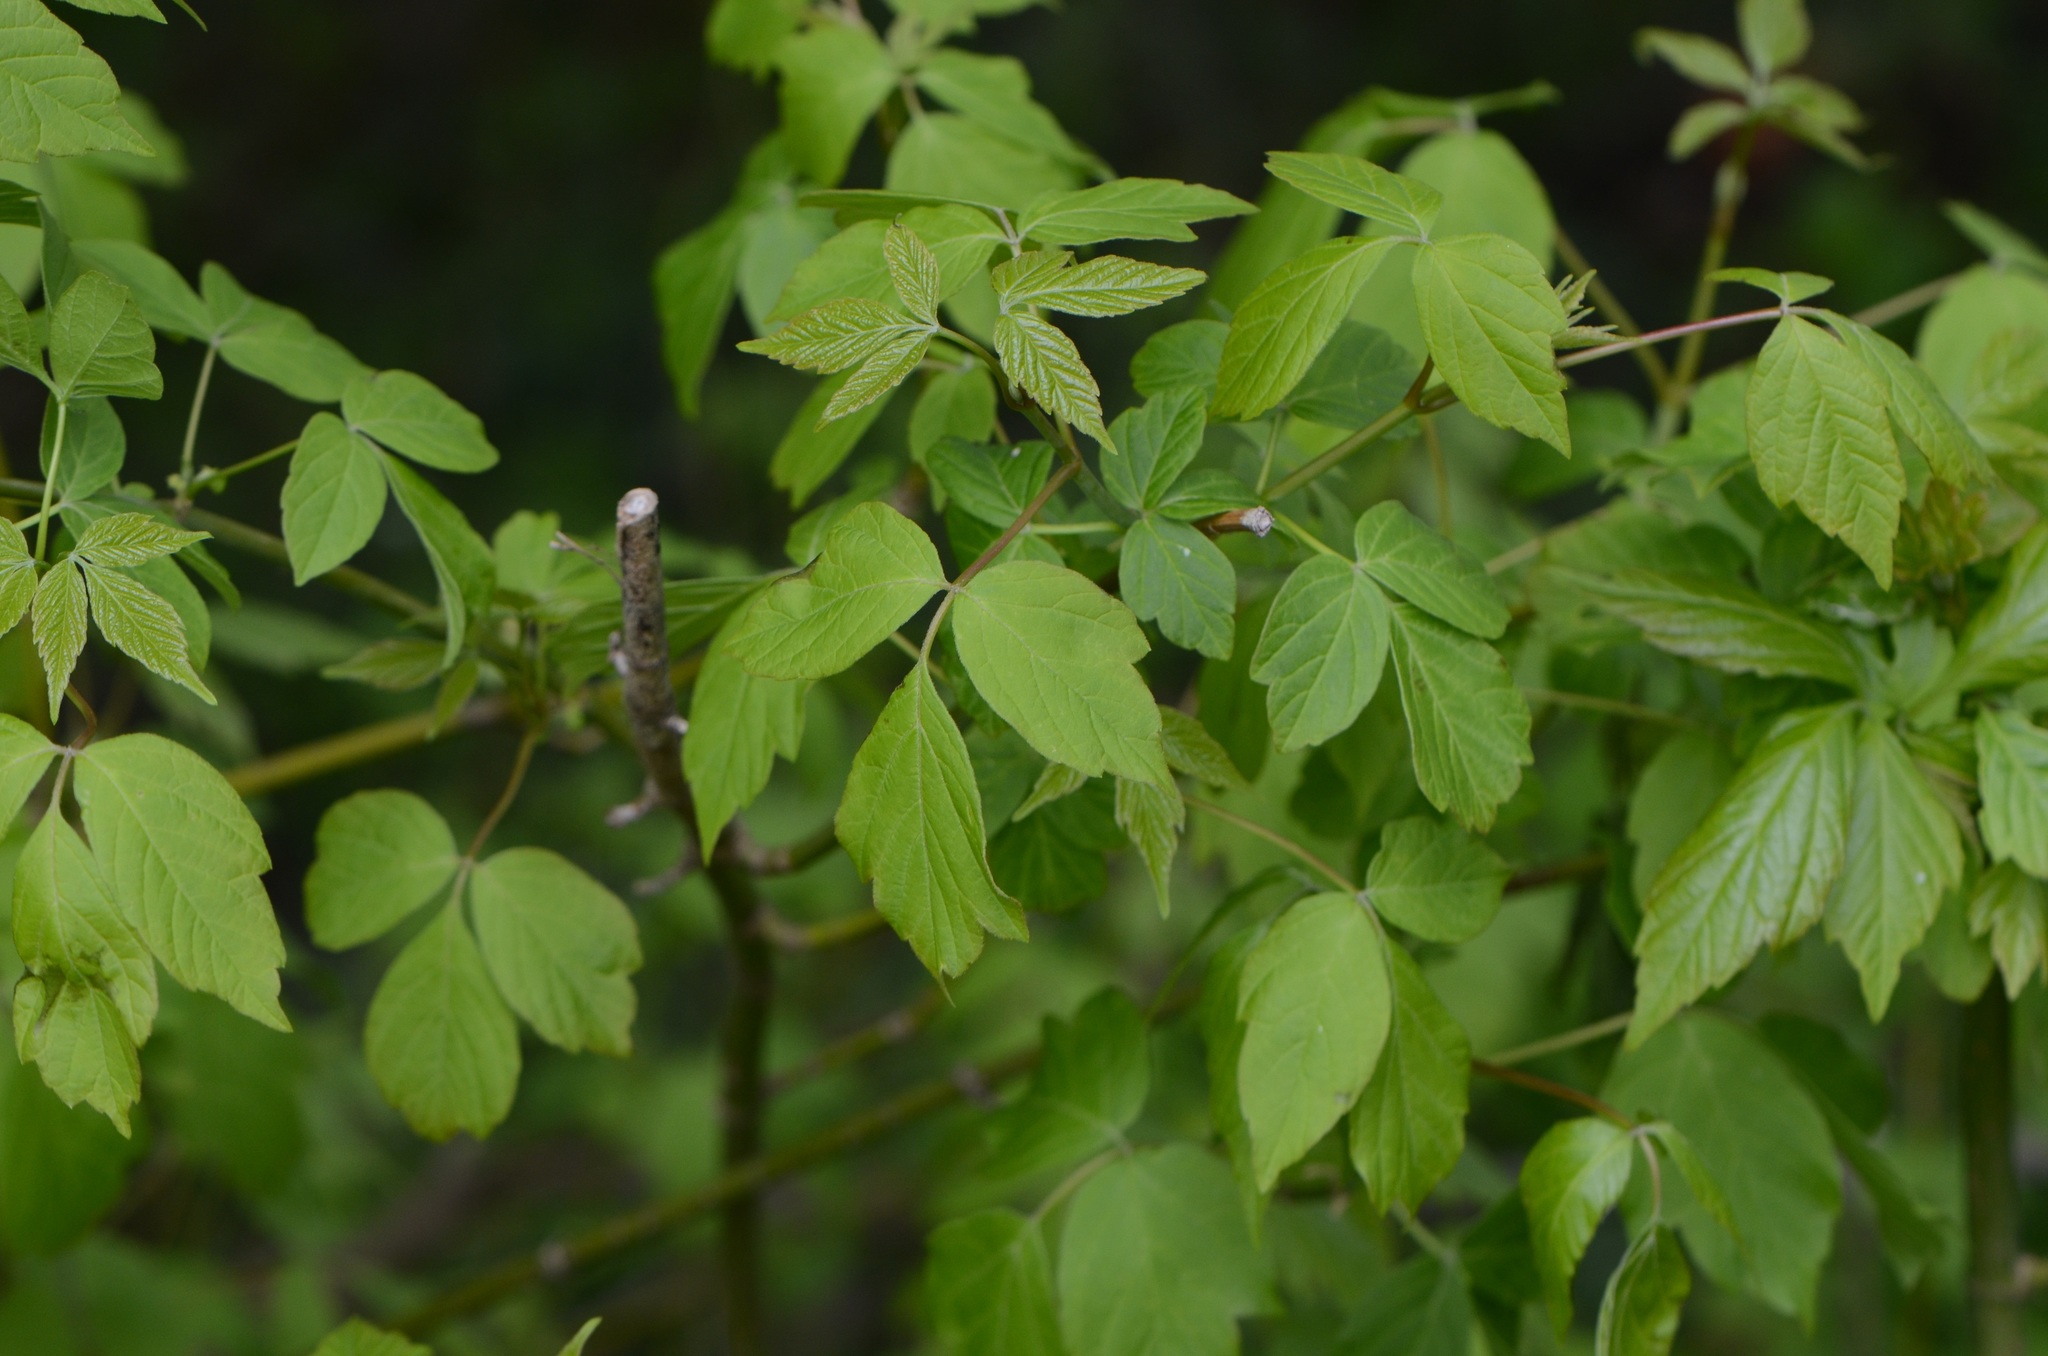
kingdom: Plantae
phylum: Tracheophyta
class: Magnoliopsida
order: Sapindales
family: Sapindaceae
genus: Acer
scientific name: Acer negundo
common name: Ashleaf maple
